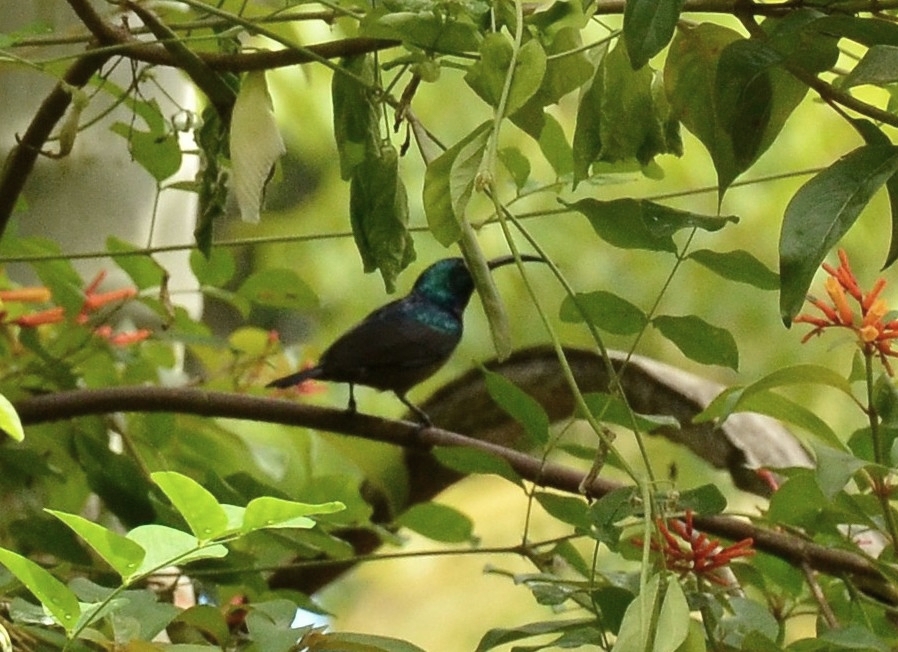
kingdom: Animalia
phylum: Chordata
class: Aves
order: Passeriformes
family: Nectariniidae
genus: Cinnyris
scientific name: Cinnyris lotenius
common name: Loten's sunbird
